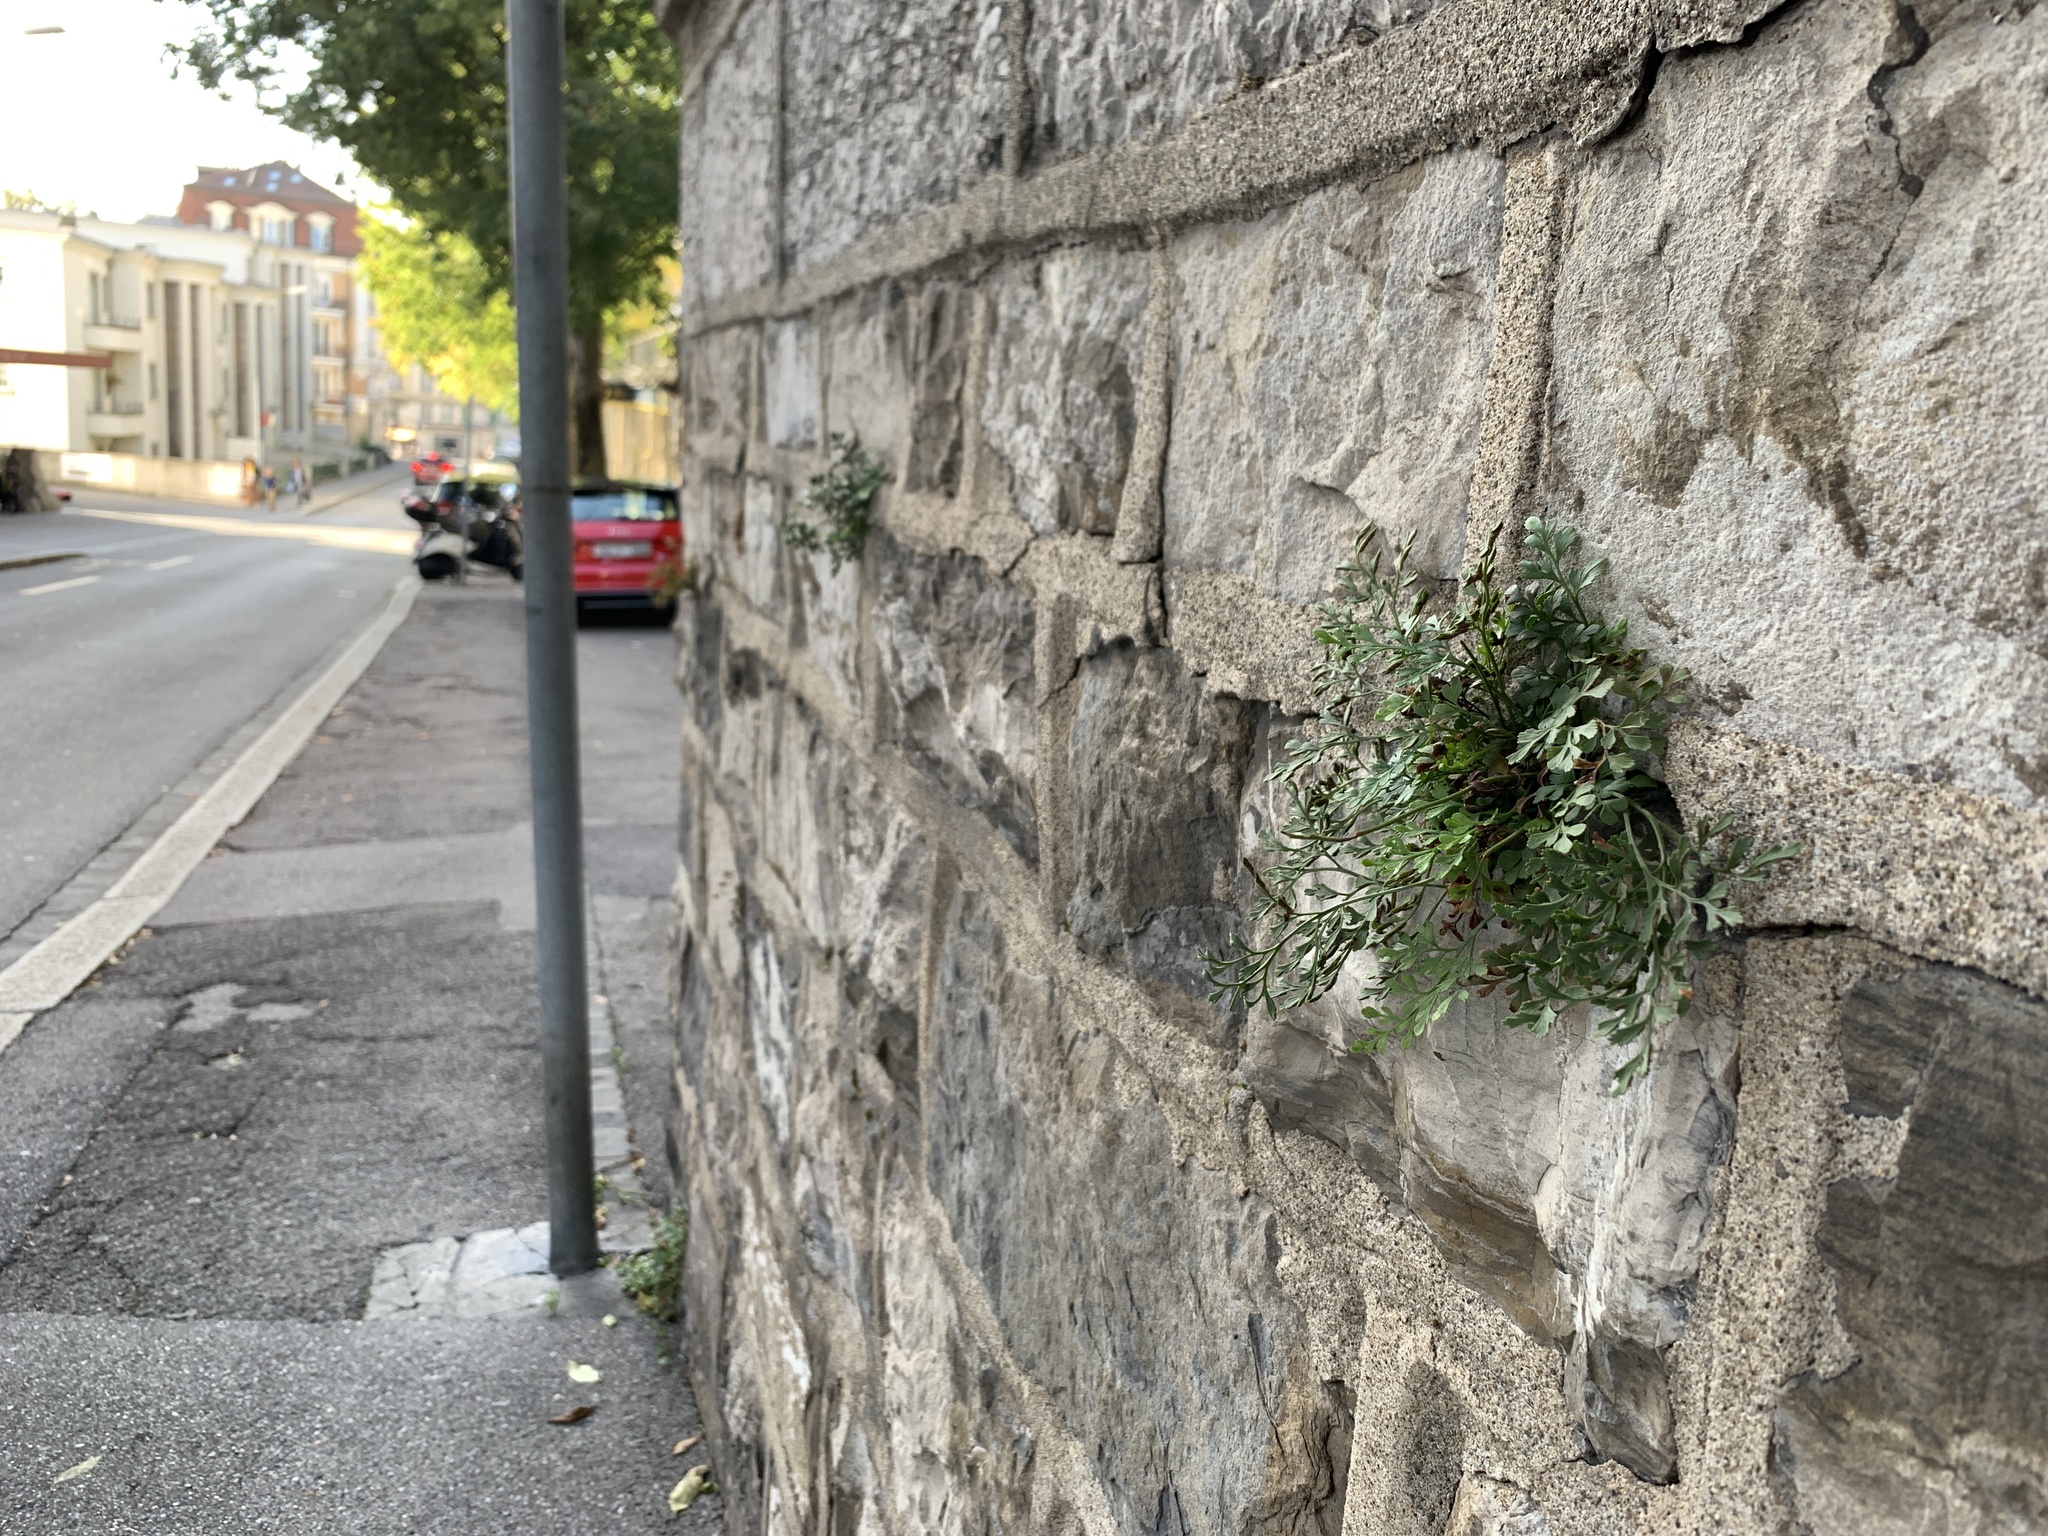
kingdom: Plantae
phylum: Tracheophyta
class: Polypodiopsida
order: Polypodiales
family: Aspleniaceae
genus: Asplenium
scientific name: Asplenium ruta-muraria
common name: Wall-rue
